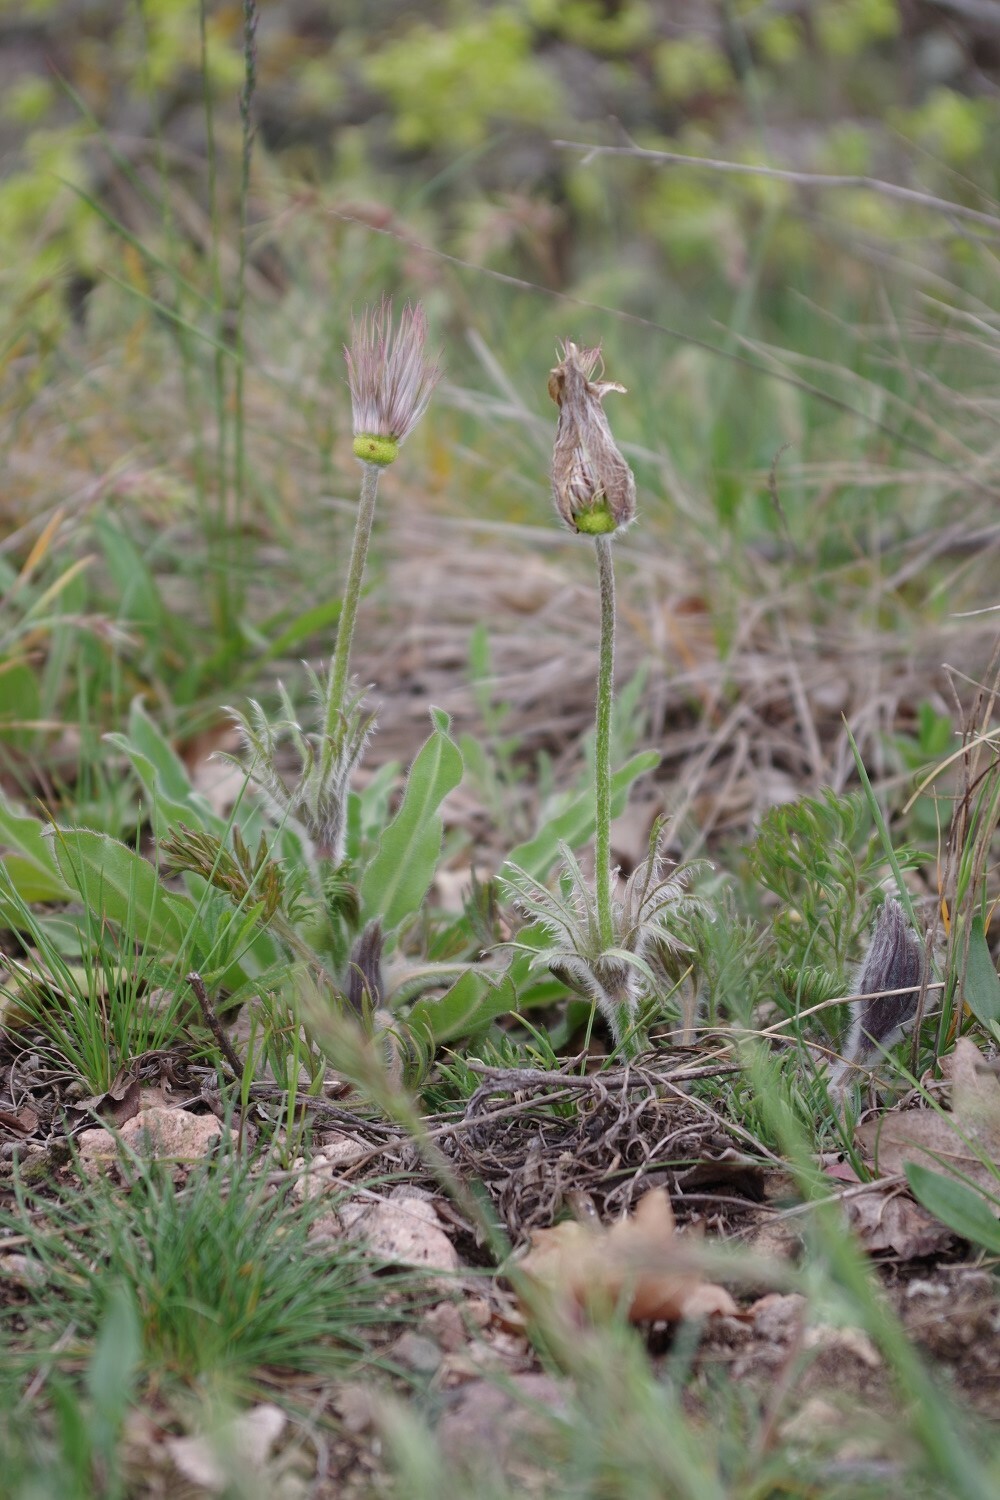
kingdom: Plantae
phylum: Tracheophyta
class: Magnoliopsida
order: Ranunculales
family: Ranunculaceae
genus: Pulsatilla
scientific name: Pulsatilla vulgaris
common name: Pasqueflower
